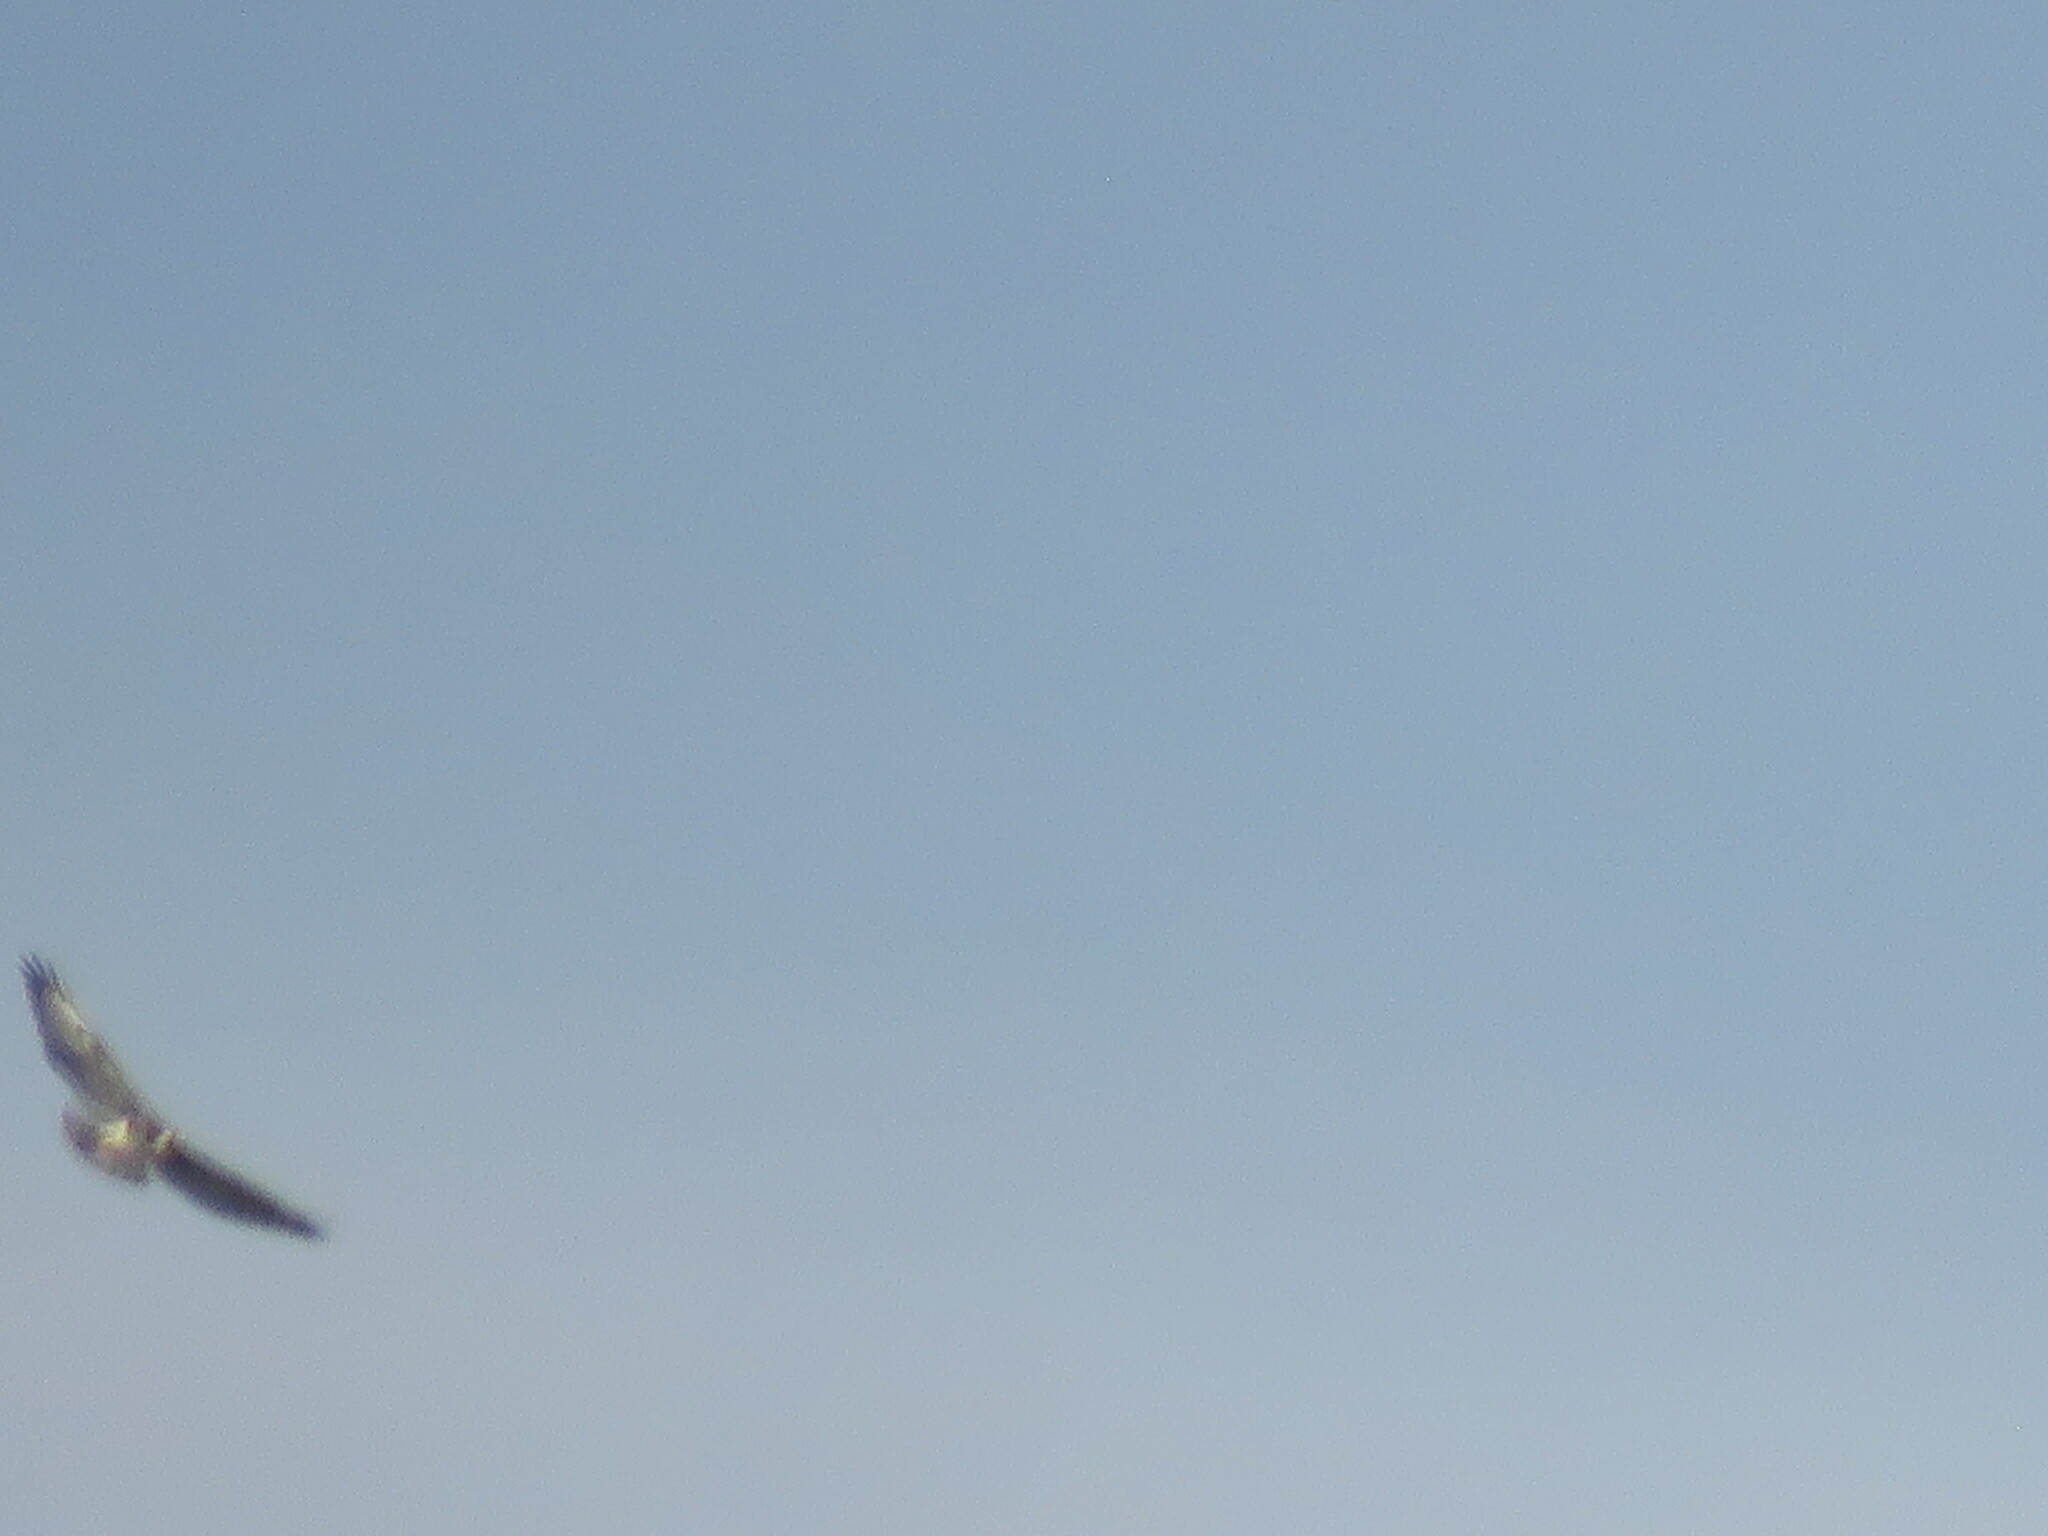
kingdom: Animalia
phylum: Chordata
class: Aves
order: Accipitriformes
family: Accipitridae
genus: Harpyhaliaetus
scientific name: Harpyhaliaetus coronatus
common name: Crowned solitary eagle
